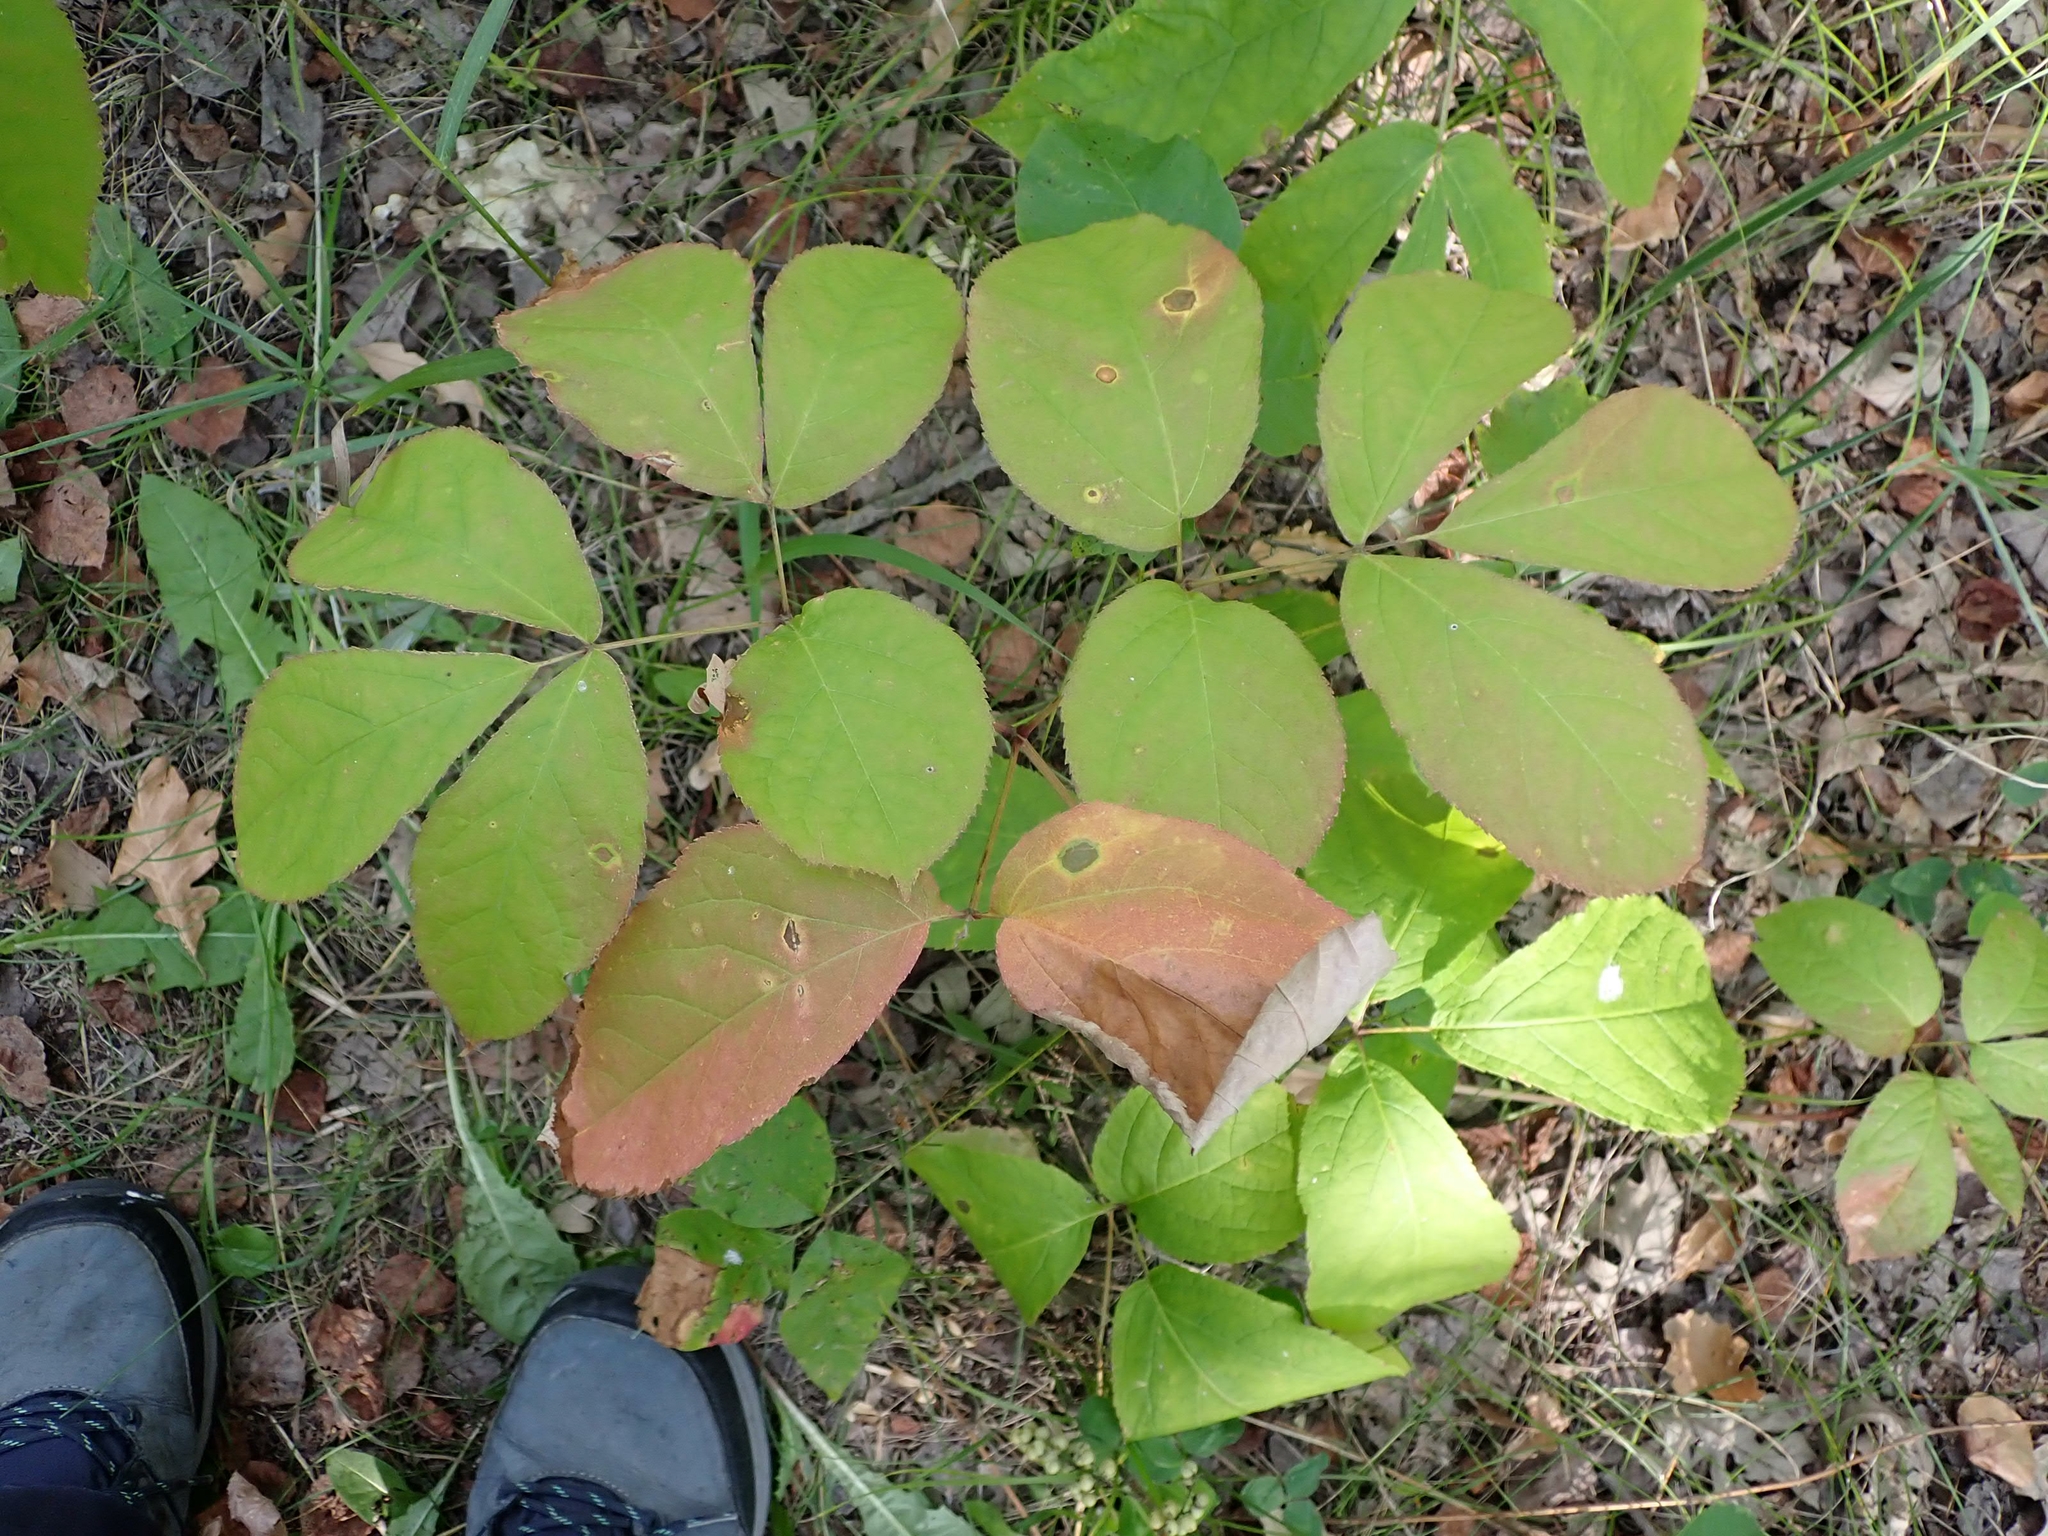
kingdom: Plantae
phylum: Tracheophyta
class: Magnoliopsida
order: Apiales
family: Araliaceae
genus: Aralia
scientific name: Aralia nudicaulis
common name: Wild sarsaparilla
